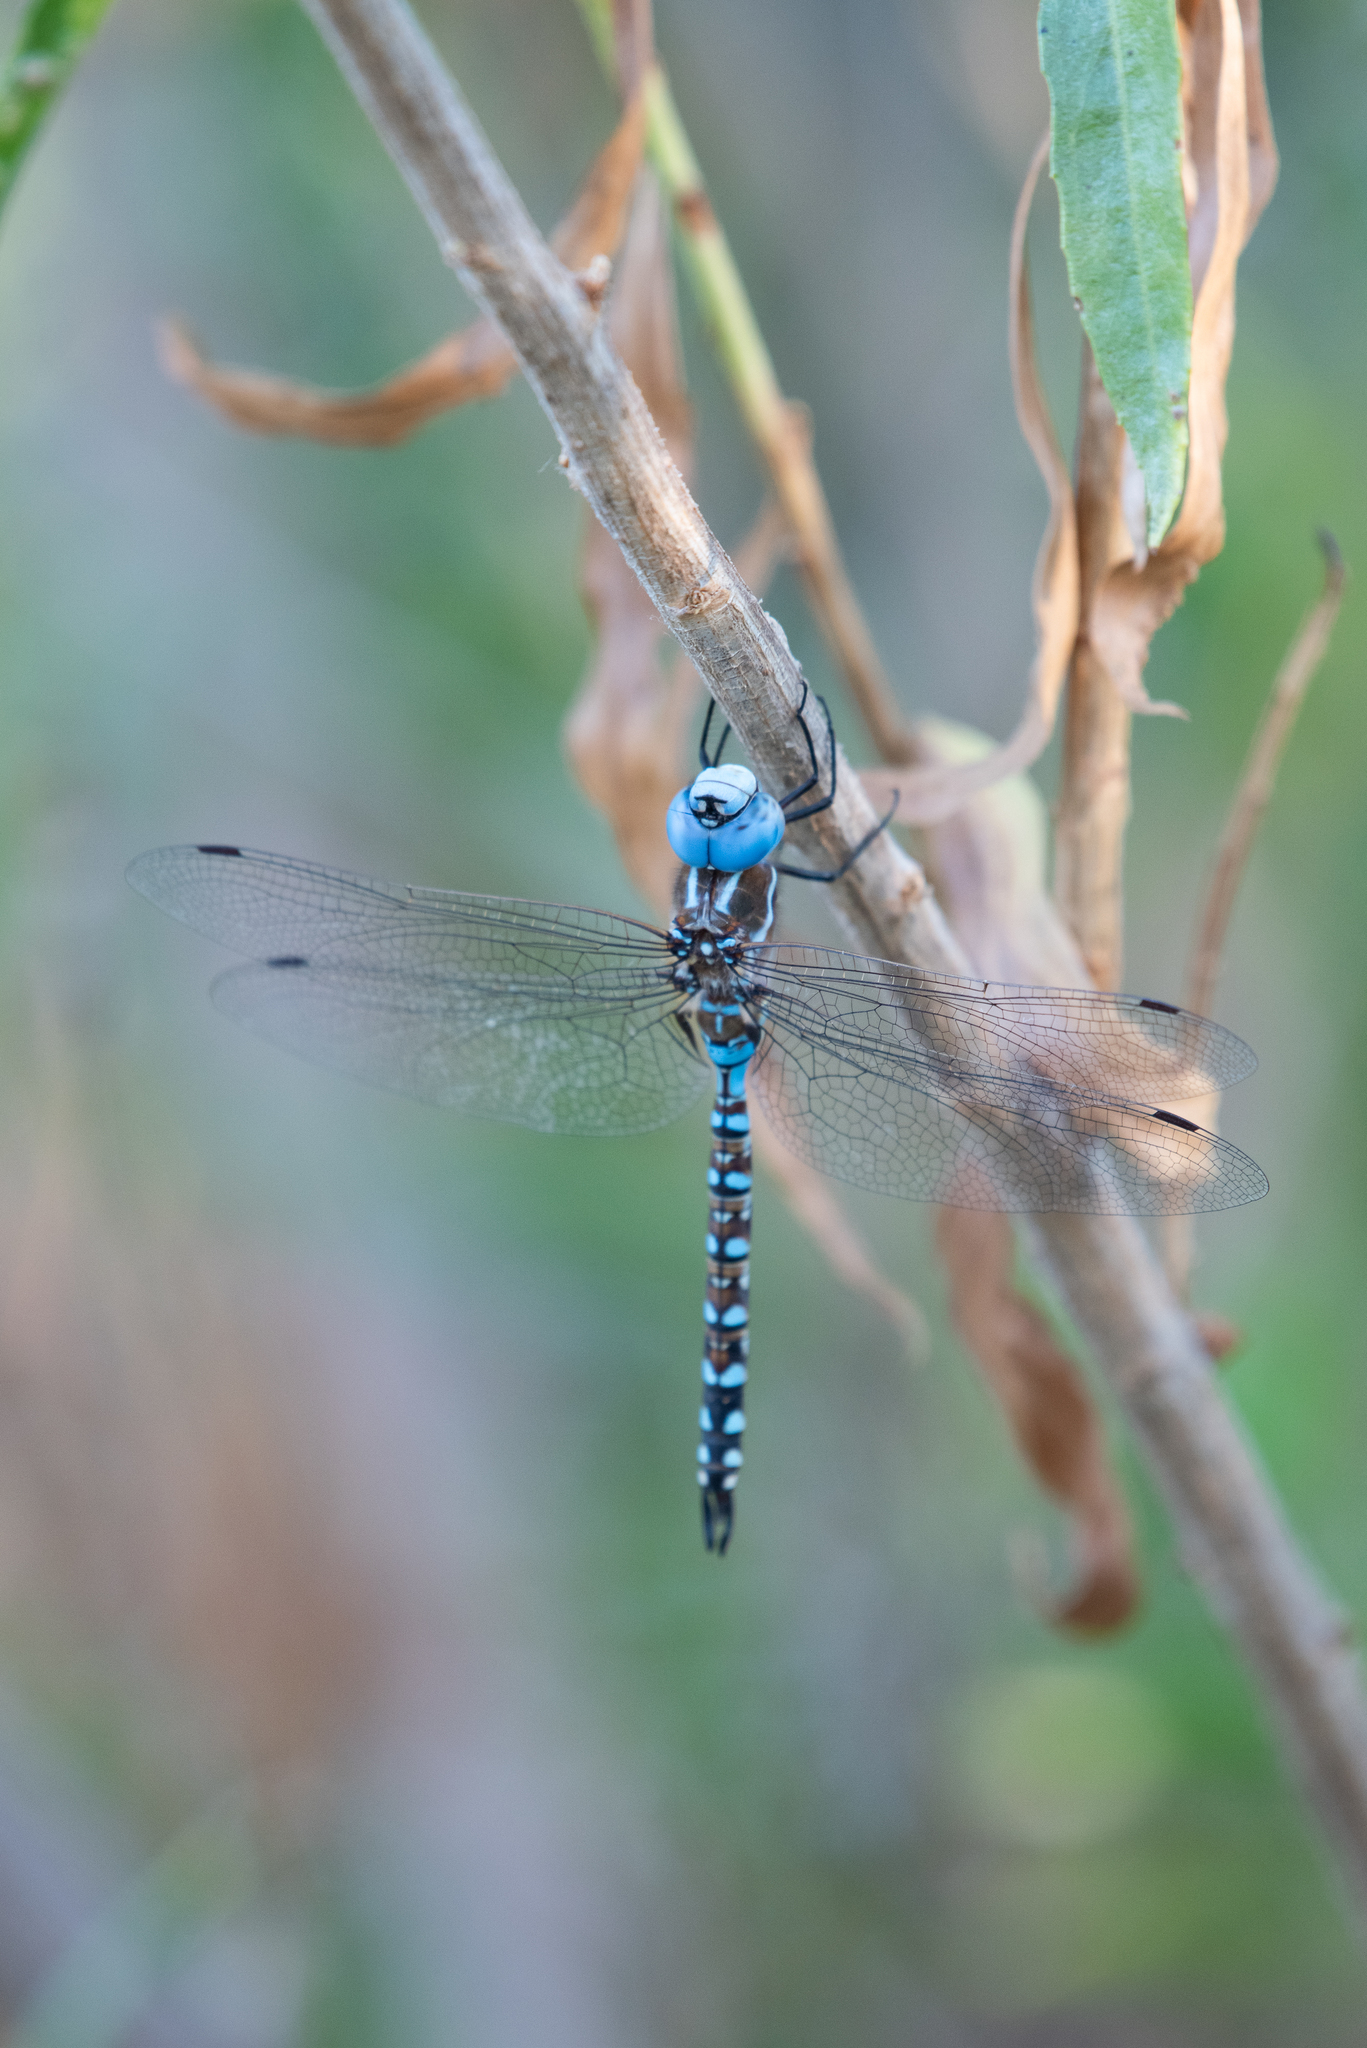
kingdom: Animalia
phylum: Arthropoda
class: Insecta
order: Odonata
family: Aeshnidae
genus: Rhionaeschna
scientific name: Rhionaeschna multicolor
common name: Blue-eyed darner
